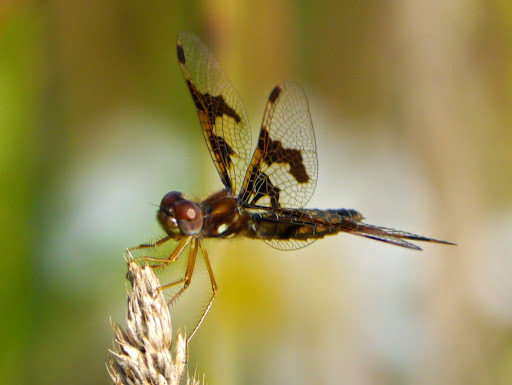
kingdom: Animalia
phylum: Arthropoda
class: Insecta
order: Odonata
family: Libellulidae
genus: Perithemis
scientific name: Perithemis tenera
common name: Eastern amberwing
